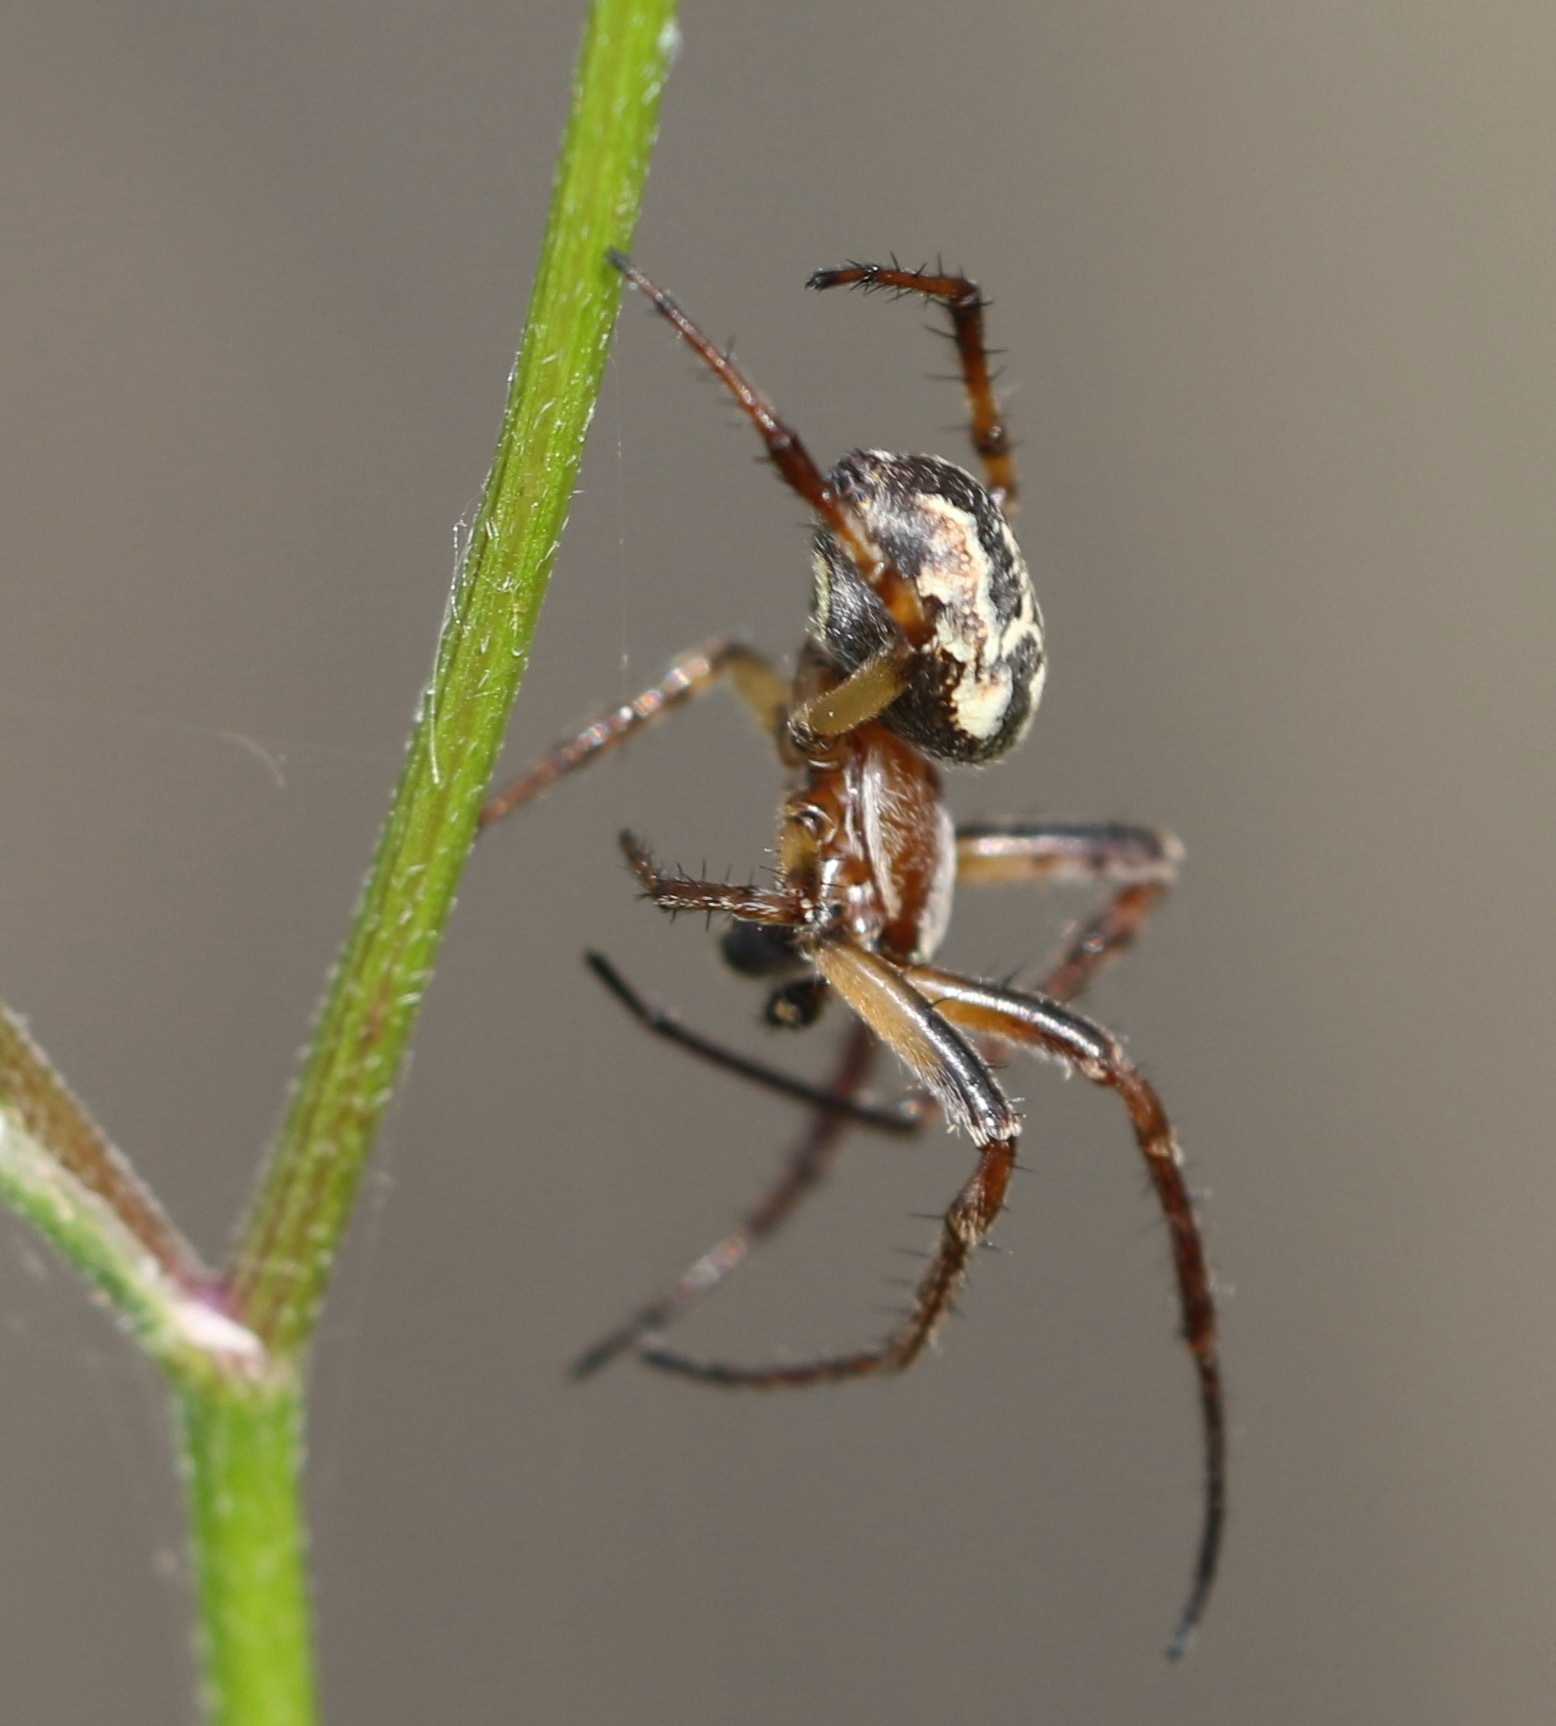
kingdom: Animalia
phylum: Arthropoda
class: Arachnida
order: Araneae
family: Araneidae
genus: Larinioides
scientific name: Larinioides cornutus
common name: Furrow orbweaver
